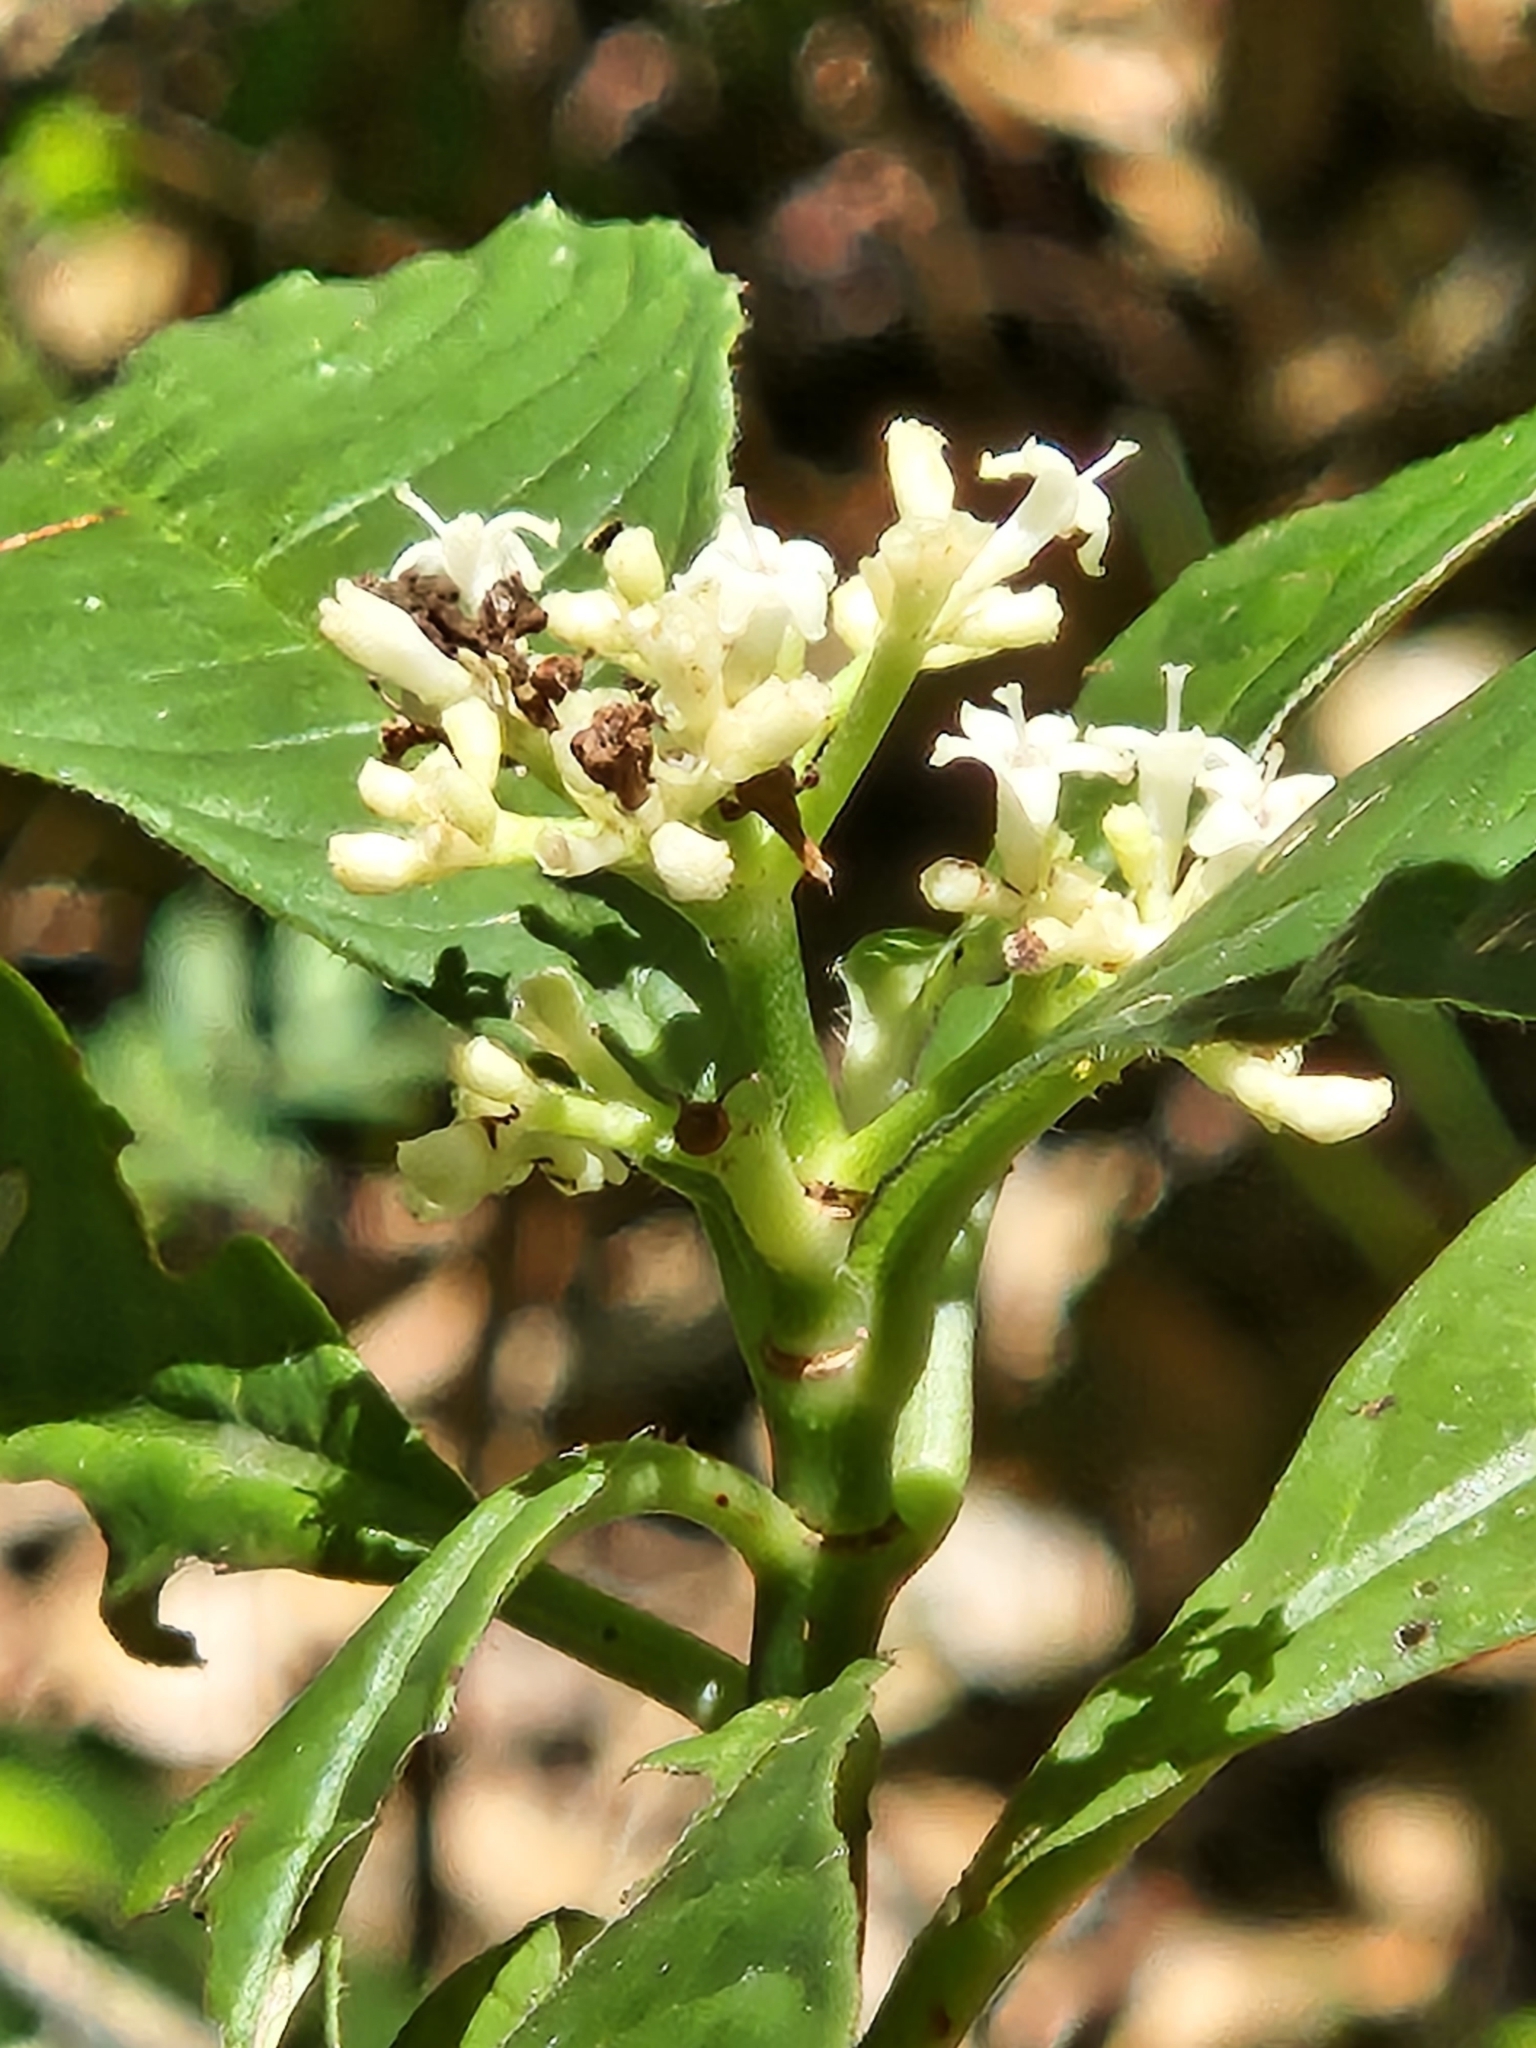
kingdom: Plantae
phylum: Tracheophyta
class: Magnoliopsida
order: Gentianales
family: Rubiaceae
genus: Psychotria
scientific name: Psychotria nervosa
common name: Bastard cankerberry
